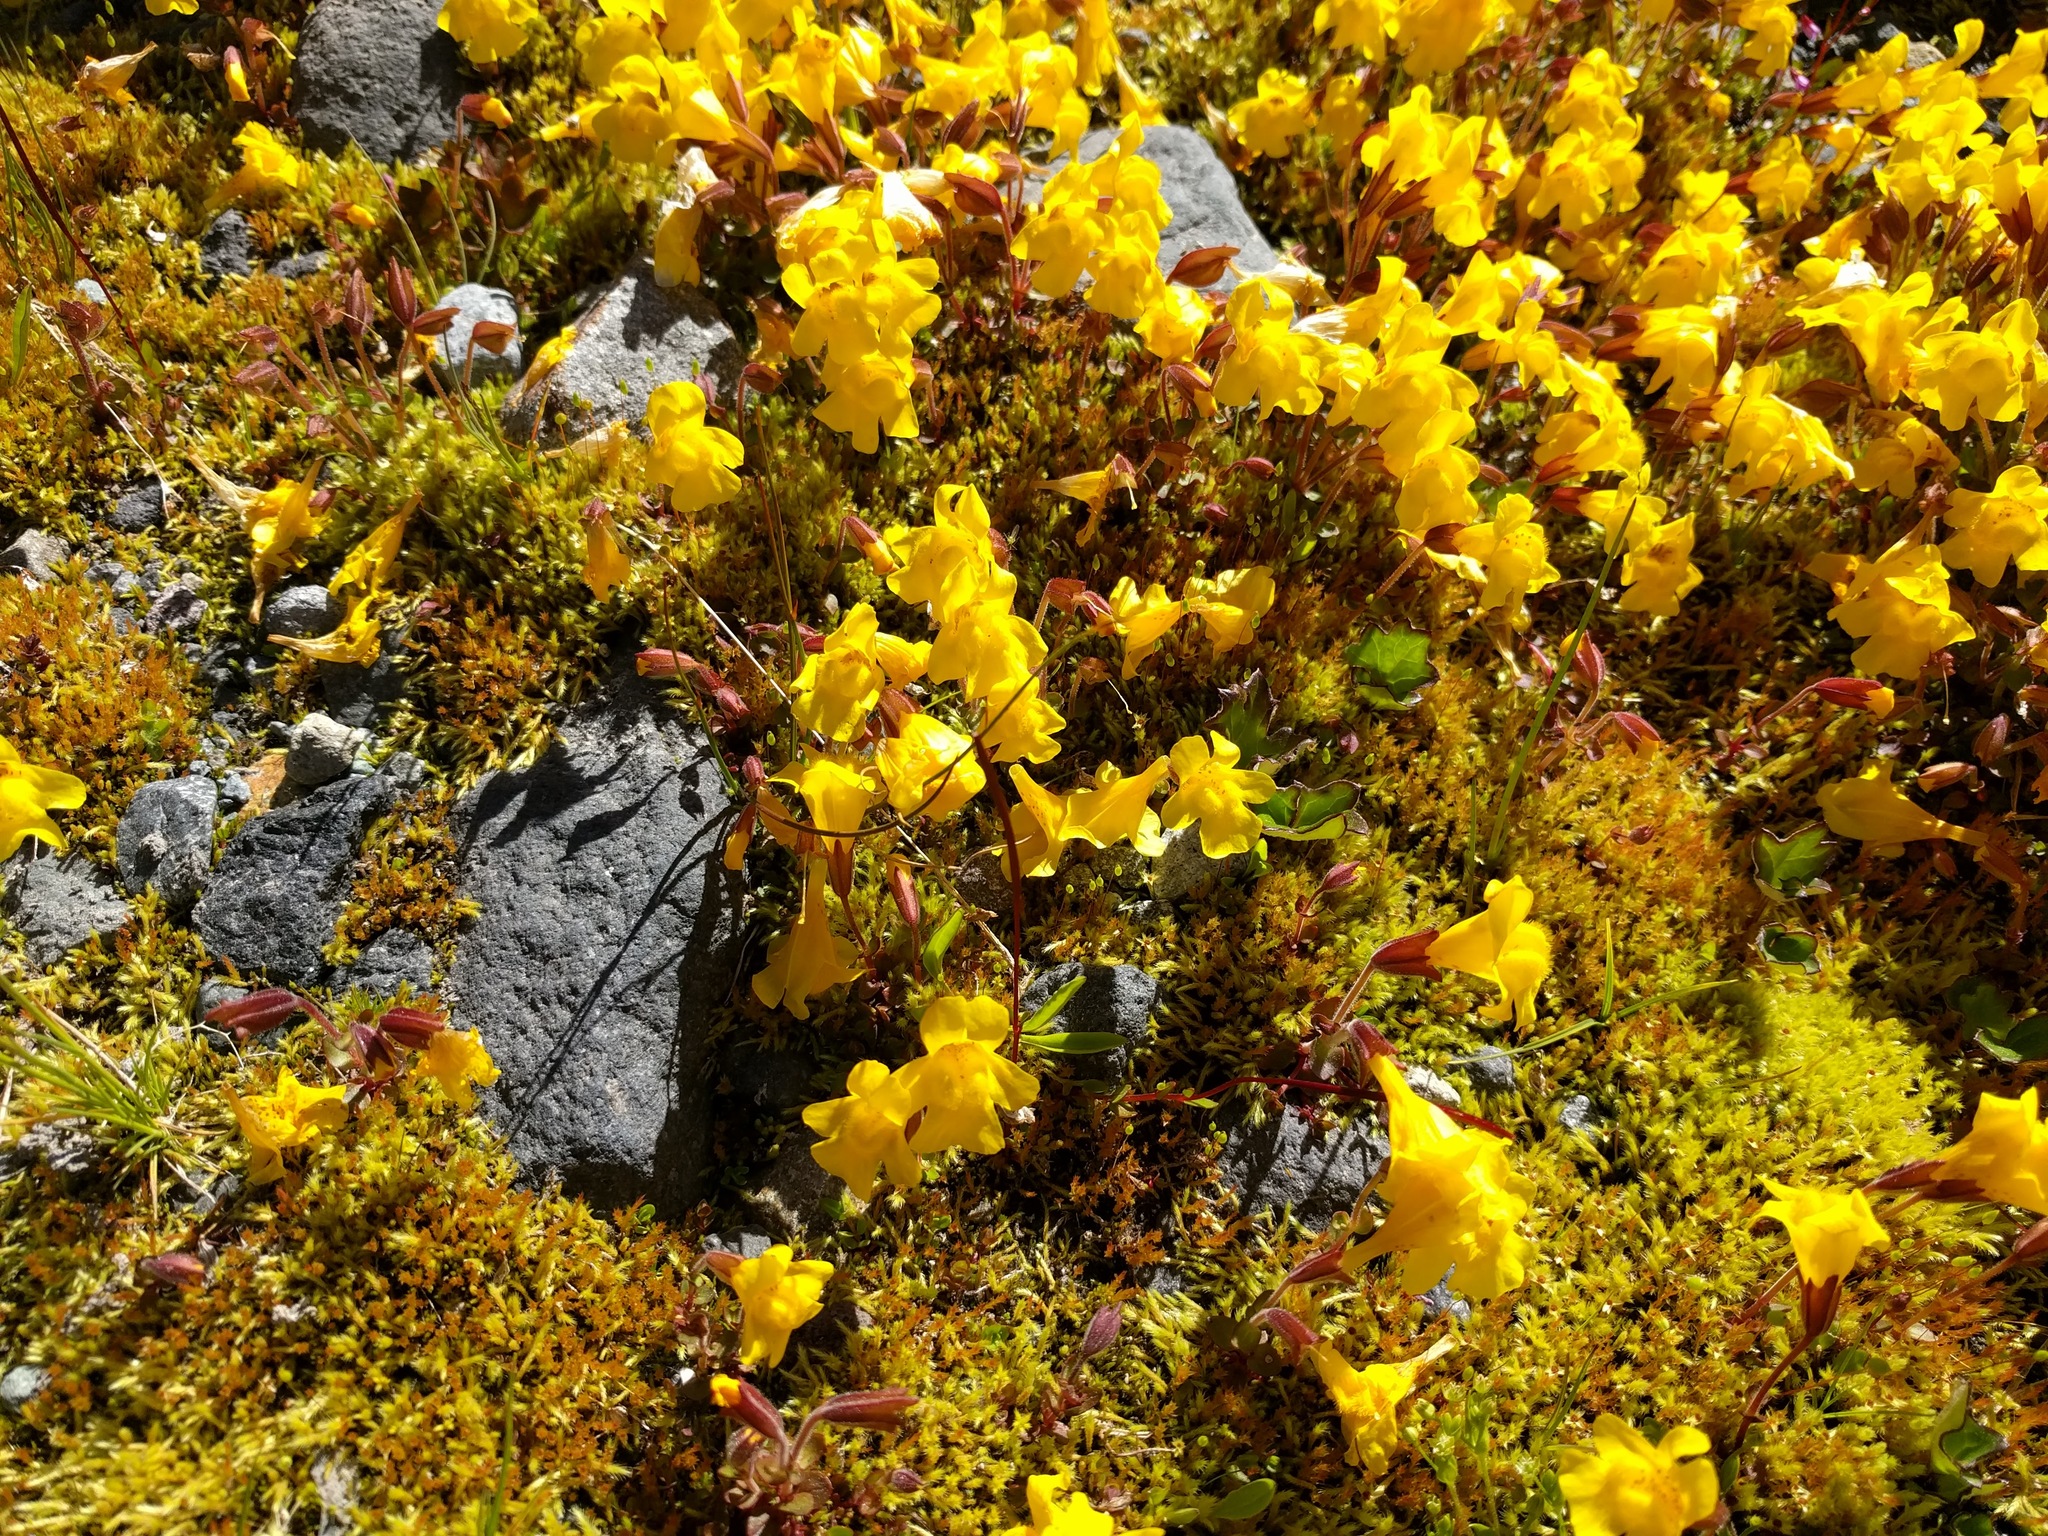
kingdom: Plantae
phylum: Tracheophyta
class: Magnoliopsida
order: Lamiales
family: Phrymaceae
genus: Erythranthe
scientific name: Erythranthe caespitosa
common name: Subalpine monkeyflower
